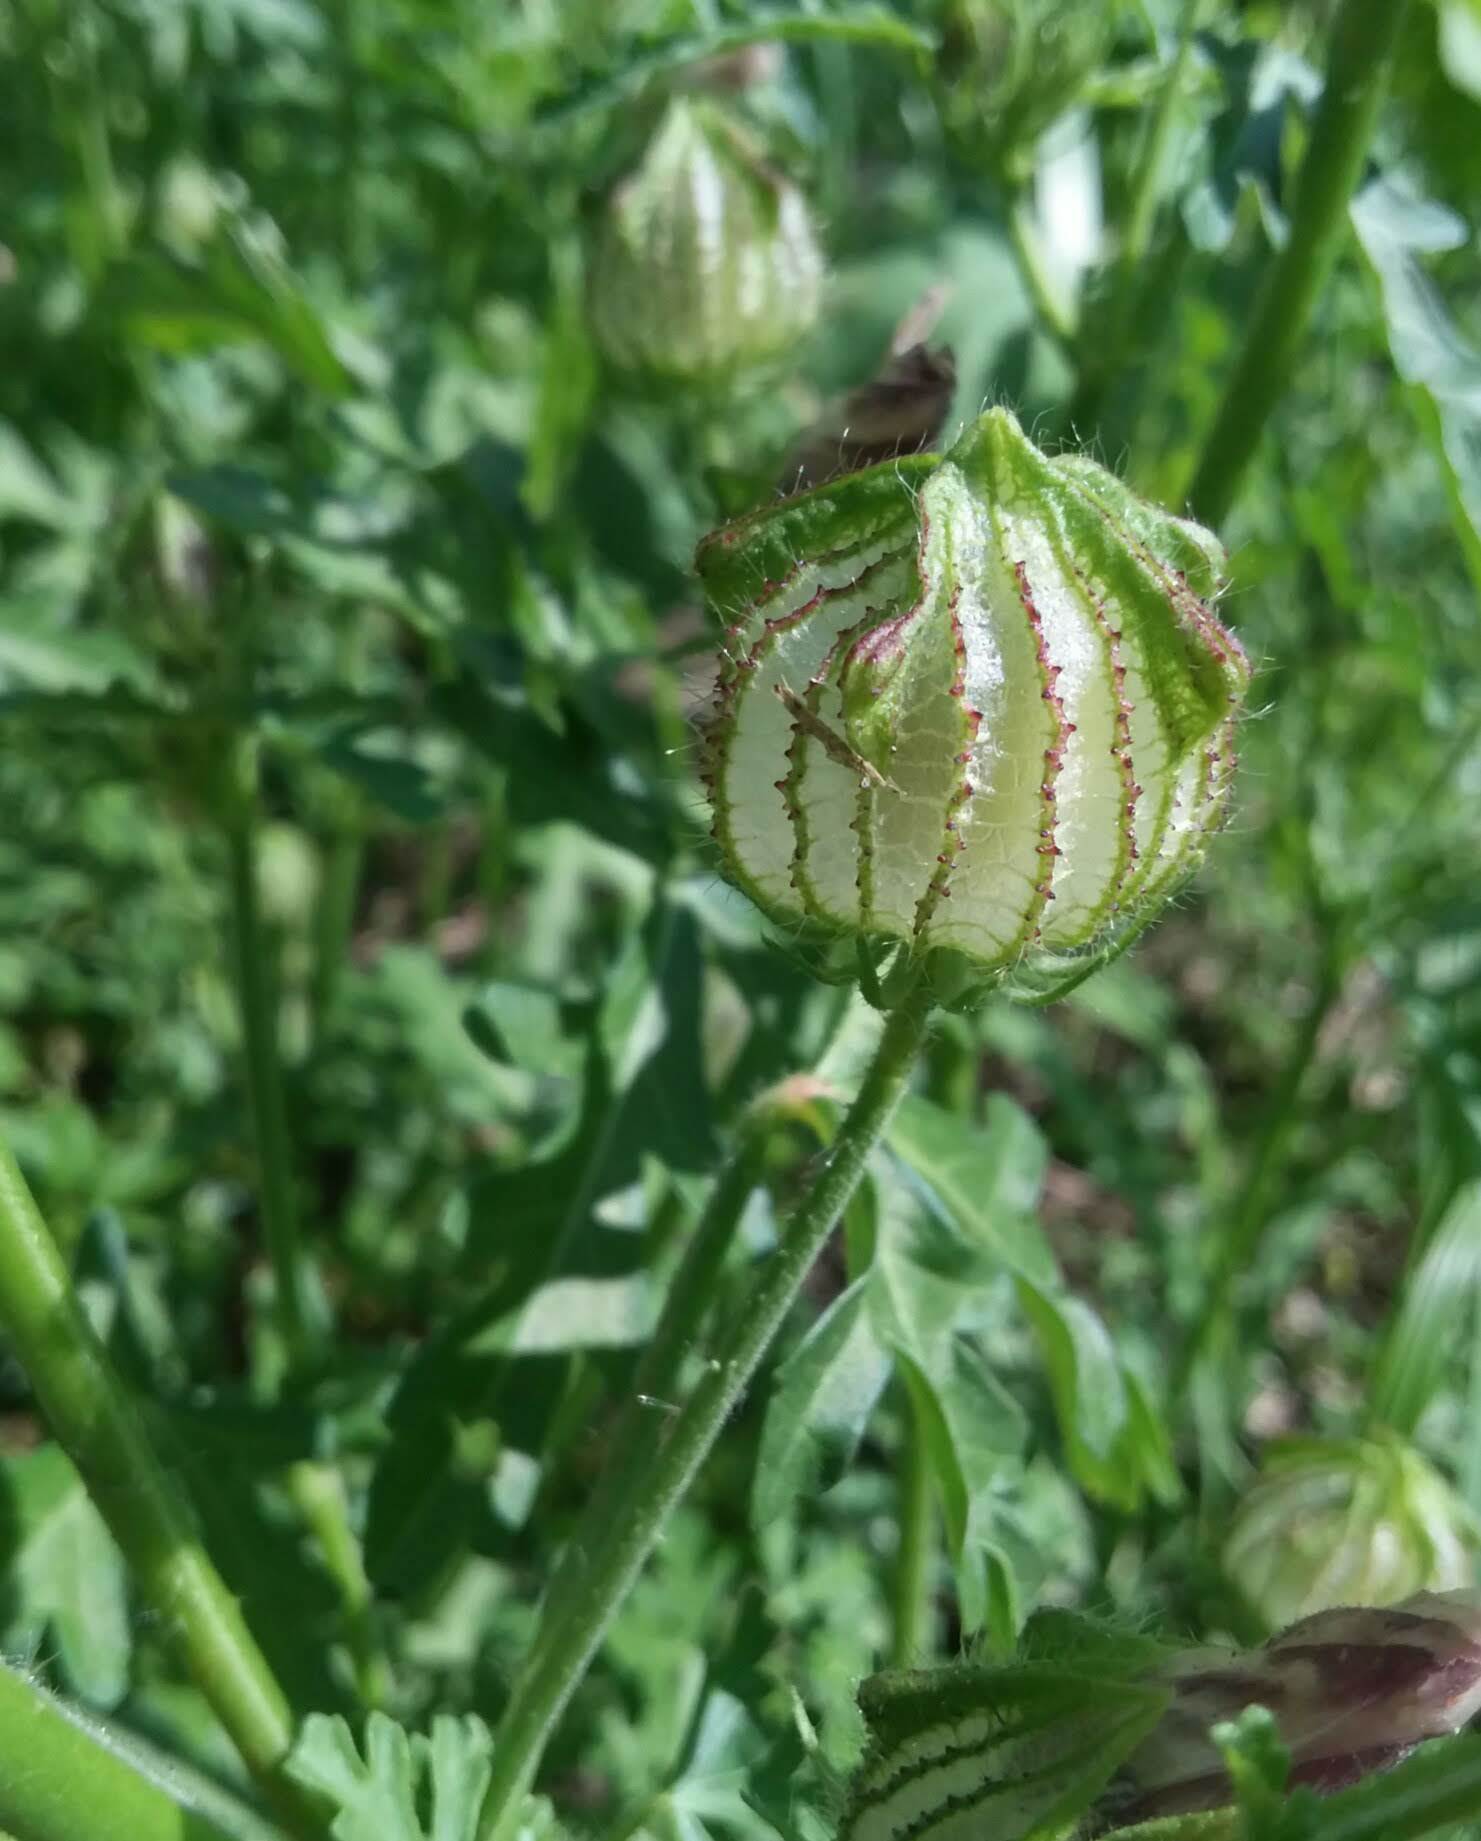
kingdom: Plantae
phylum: Tracheophyta
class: Magnoliopsida
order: Malvales
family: Malvaceae
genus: Hibiscus
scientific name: Hibiscus trionum
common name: Bladder ketmia
